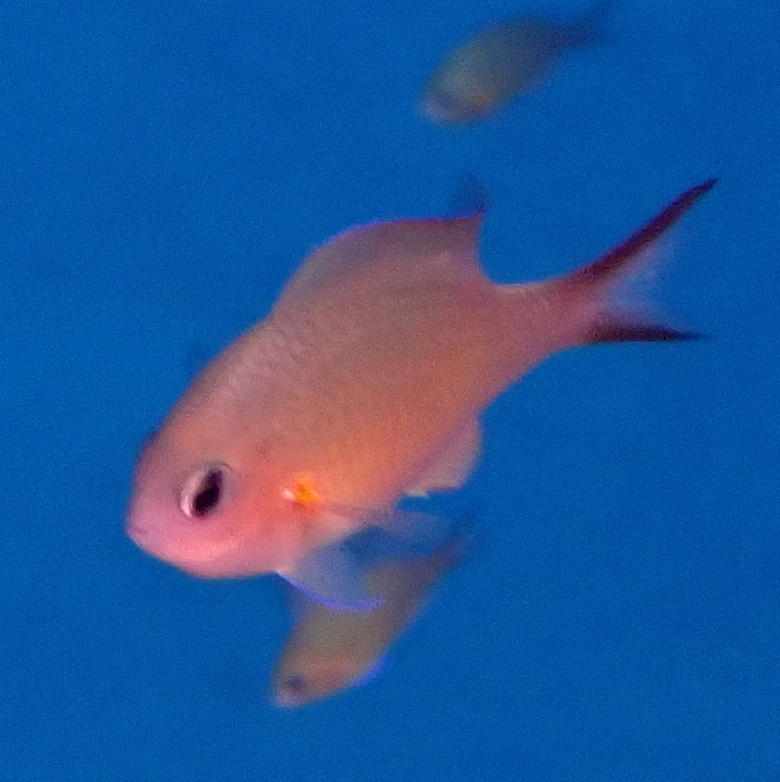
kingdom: Animalia
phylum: Chordata
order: Perciformes
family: Pomacentridae
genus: Chromis
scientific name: Chromis flavaxilla
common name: Arabian chromis
